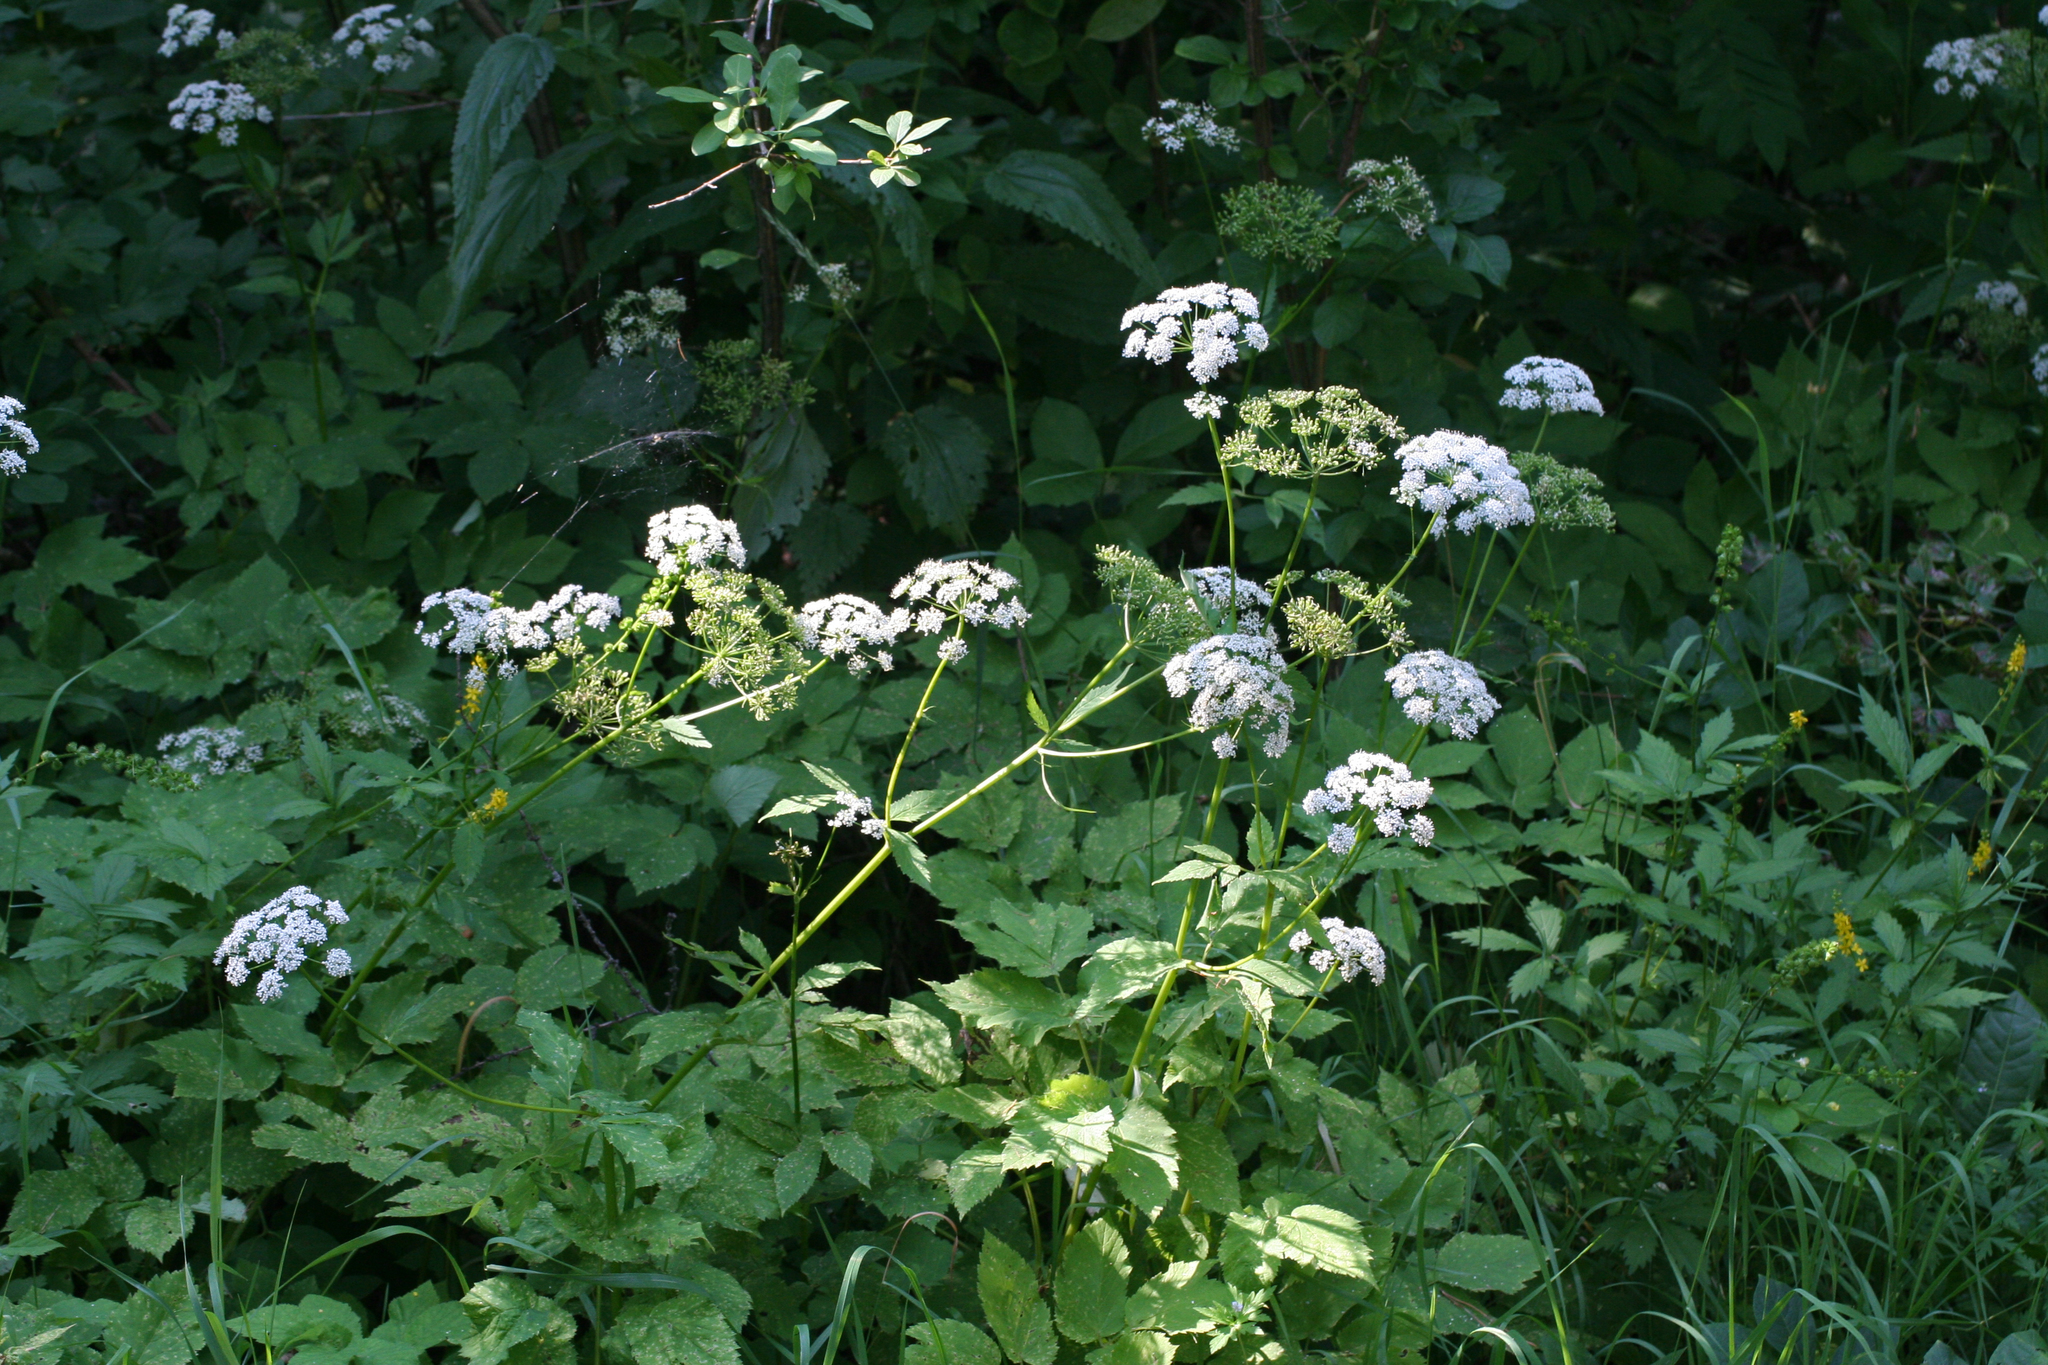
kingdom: Plantae
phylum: Tracheophyta
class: Magnoliopsida
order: Apiales
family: Apiaceae
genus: Aegopodium
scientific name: Aegopodium podagraria
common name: Ground-elder
